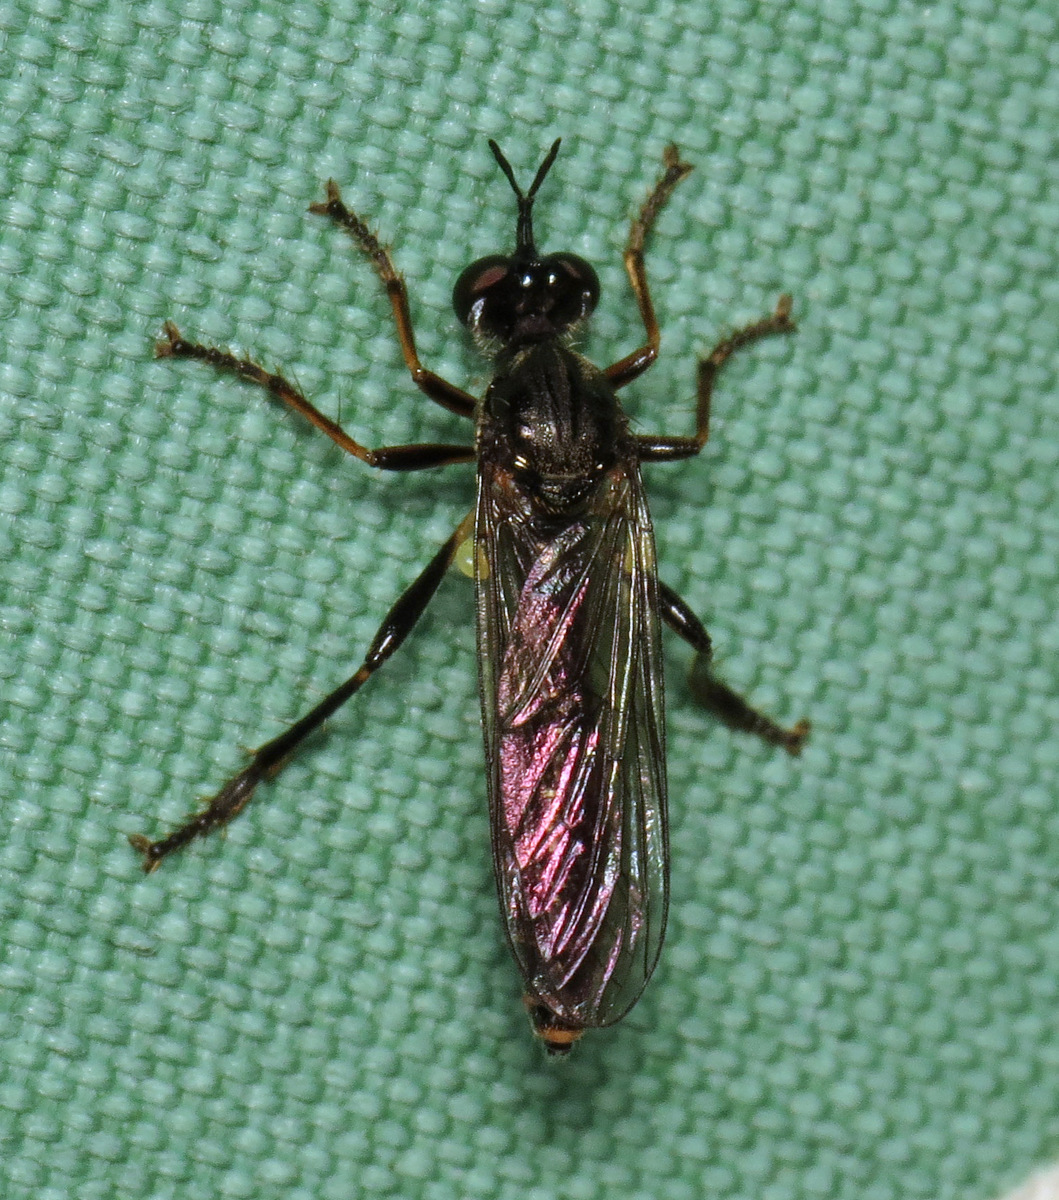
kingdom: Animalia
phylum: Arthropoda
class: Insecta
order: Diptera
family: Asilidae
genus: Dioctria
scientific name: Dioctria hyalipennis
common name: Stripe-legged robberfly
